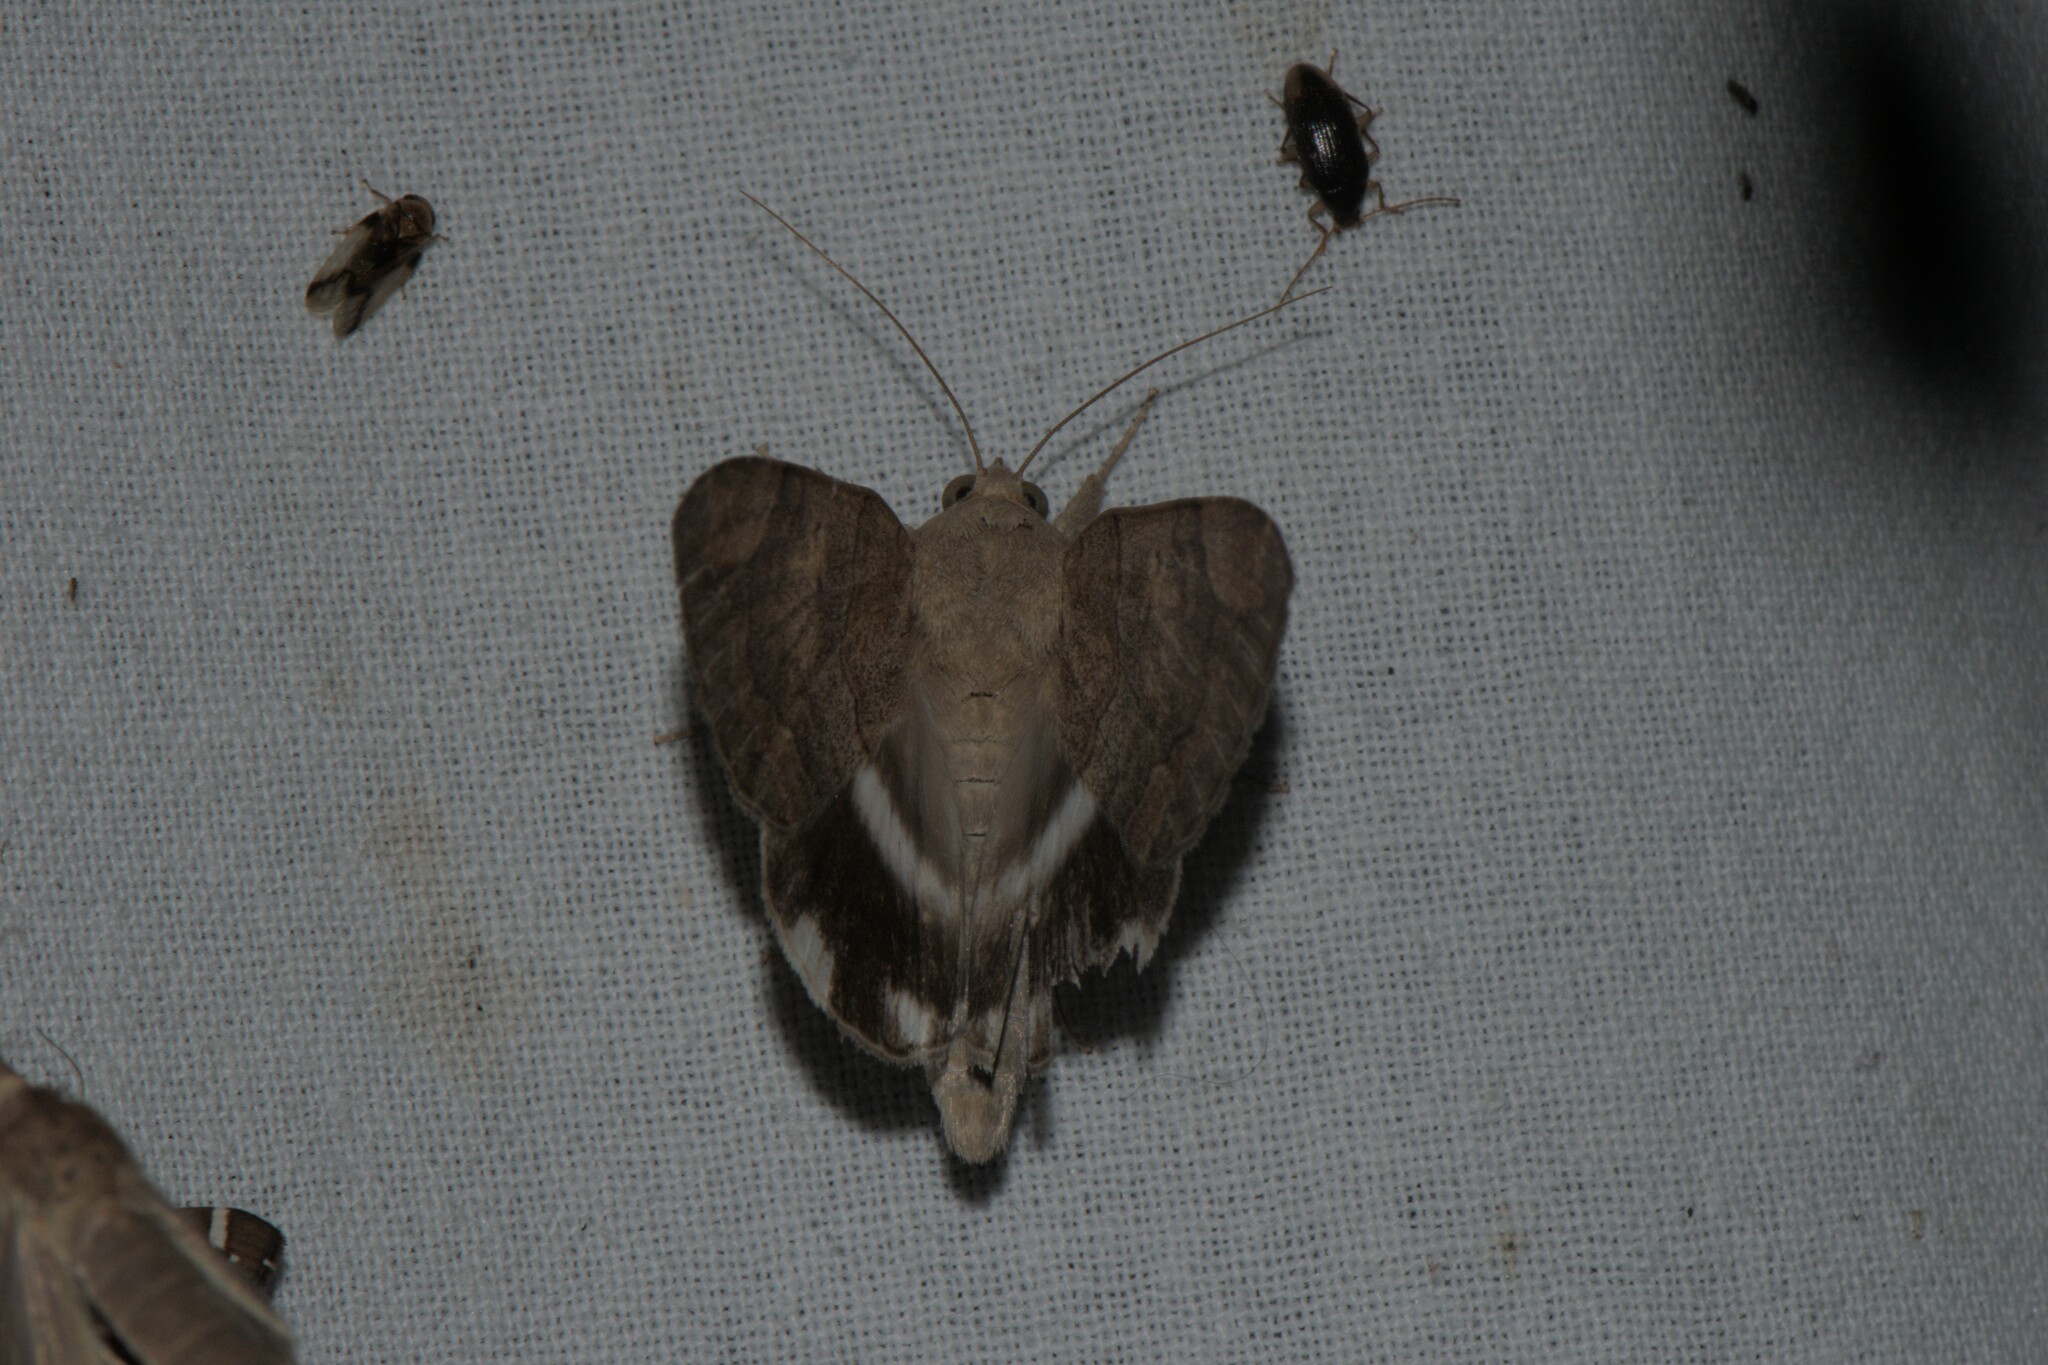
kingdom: Animalia
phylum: Arthropoda
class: Insecta
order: Lepidoptera
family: Erebidae
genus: Achaea
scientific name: Achaea janata
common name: Croton caterpillar
